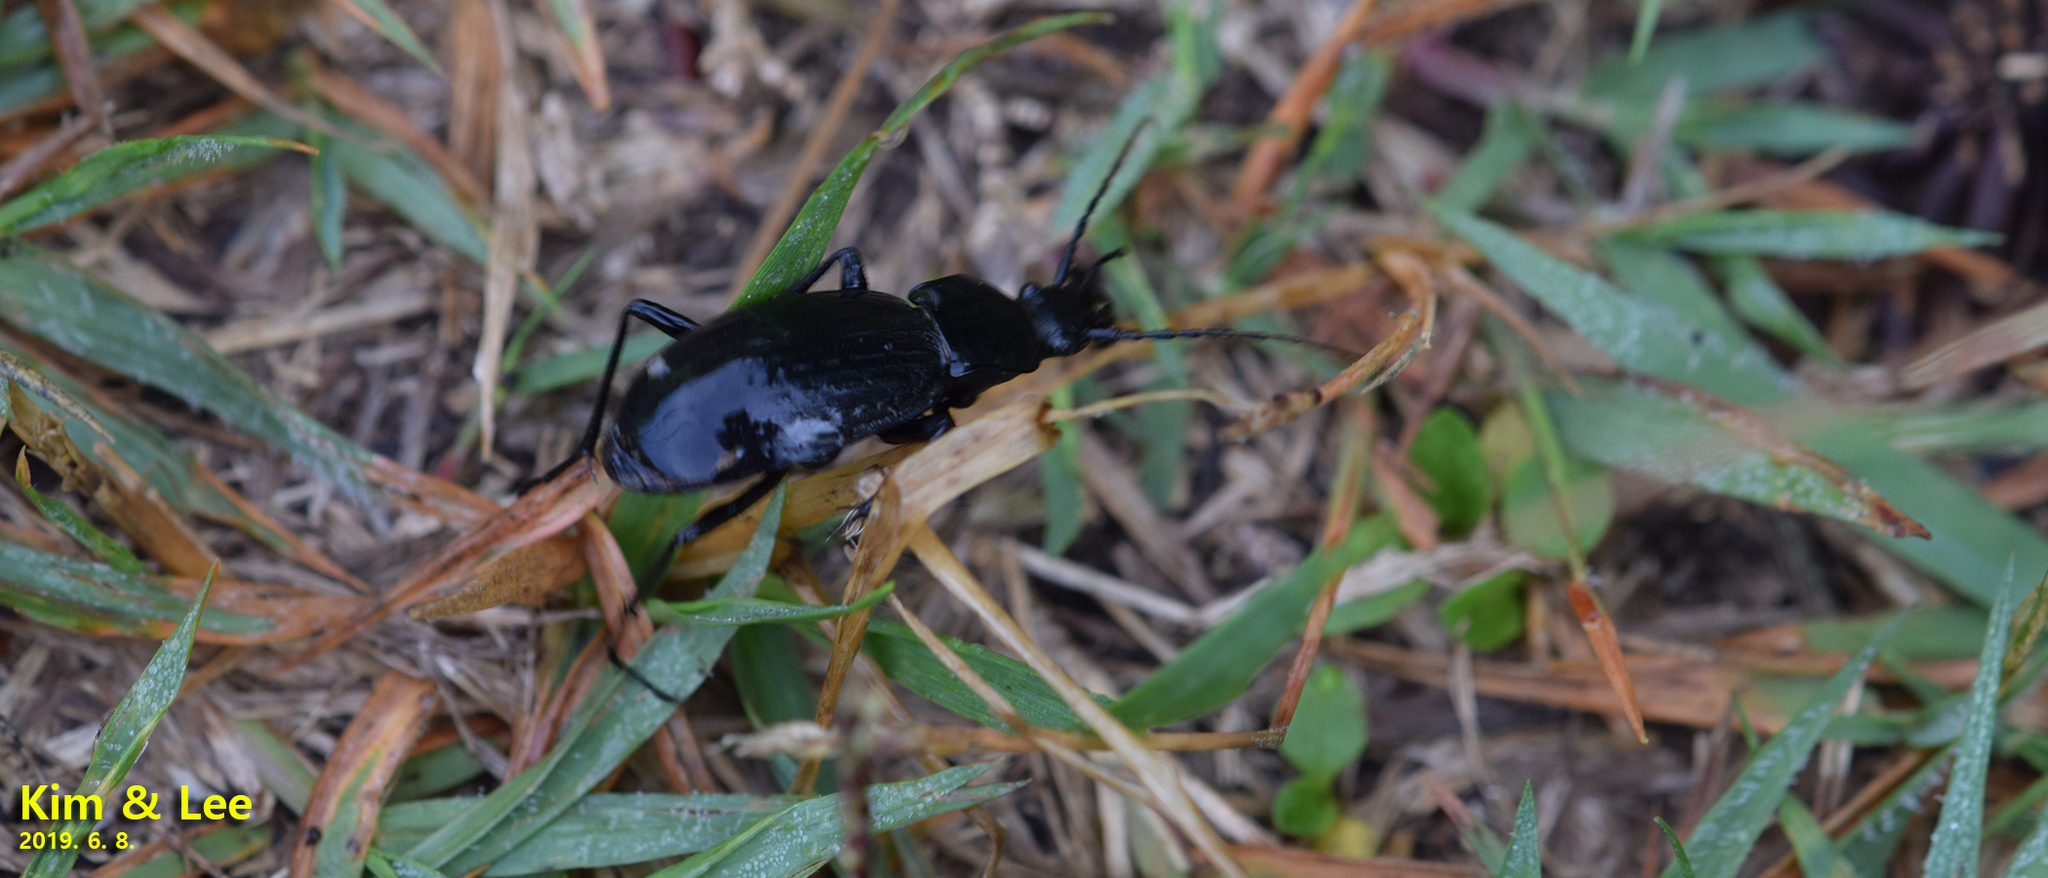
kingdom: Animalia
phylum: Arthropoda
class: Insecta
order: Coleoptera
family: Carabidae
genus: Carabus
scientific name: Carabus koreanus
